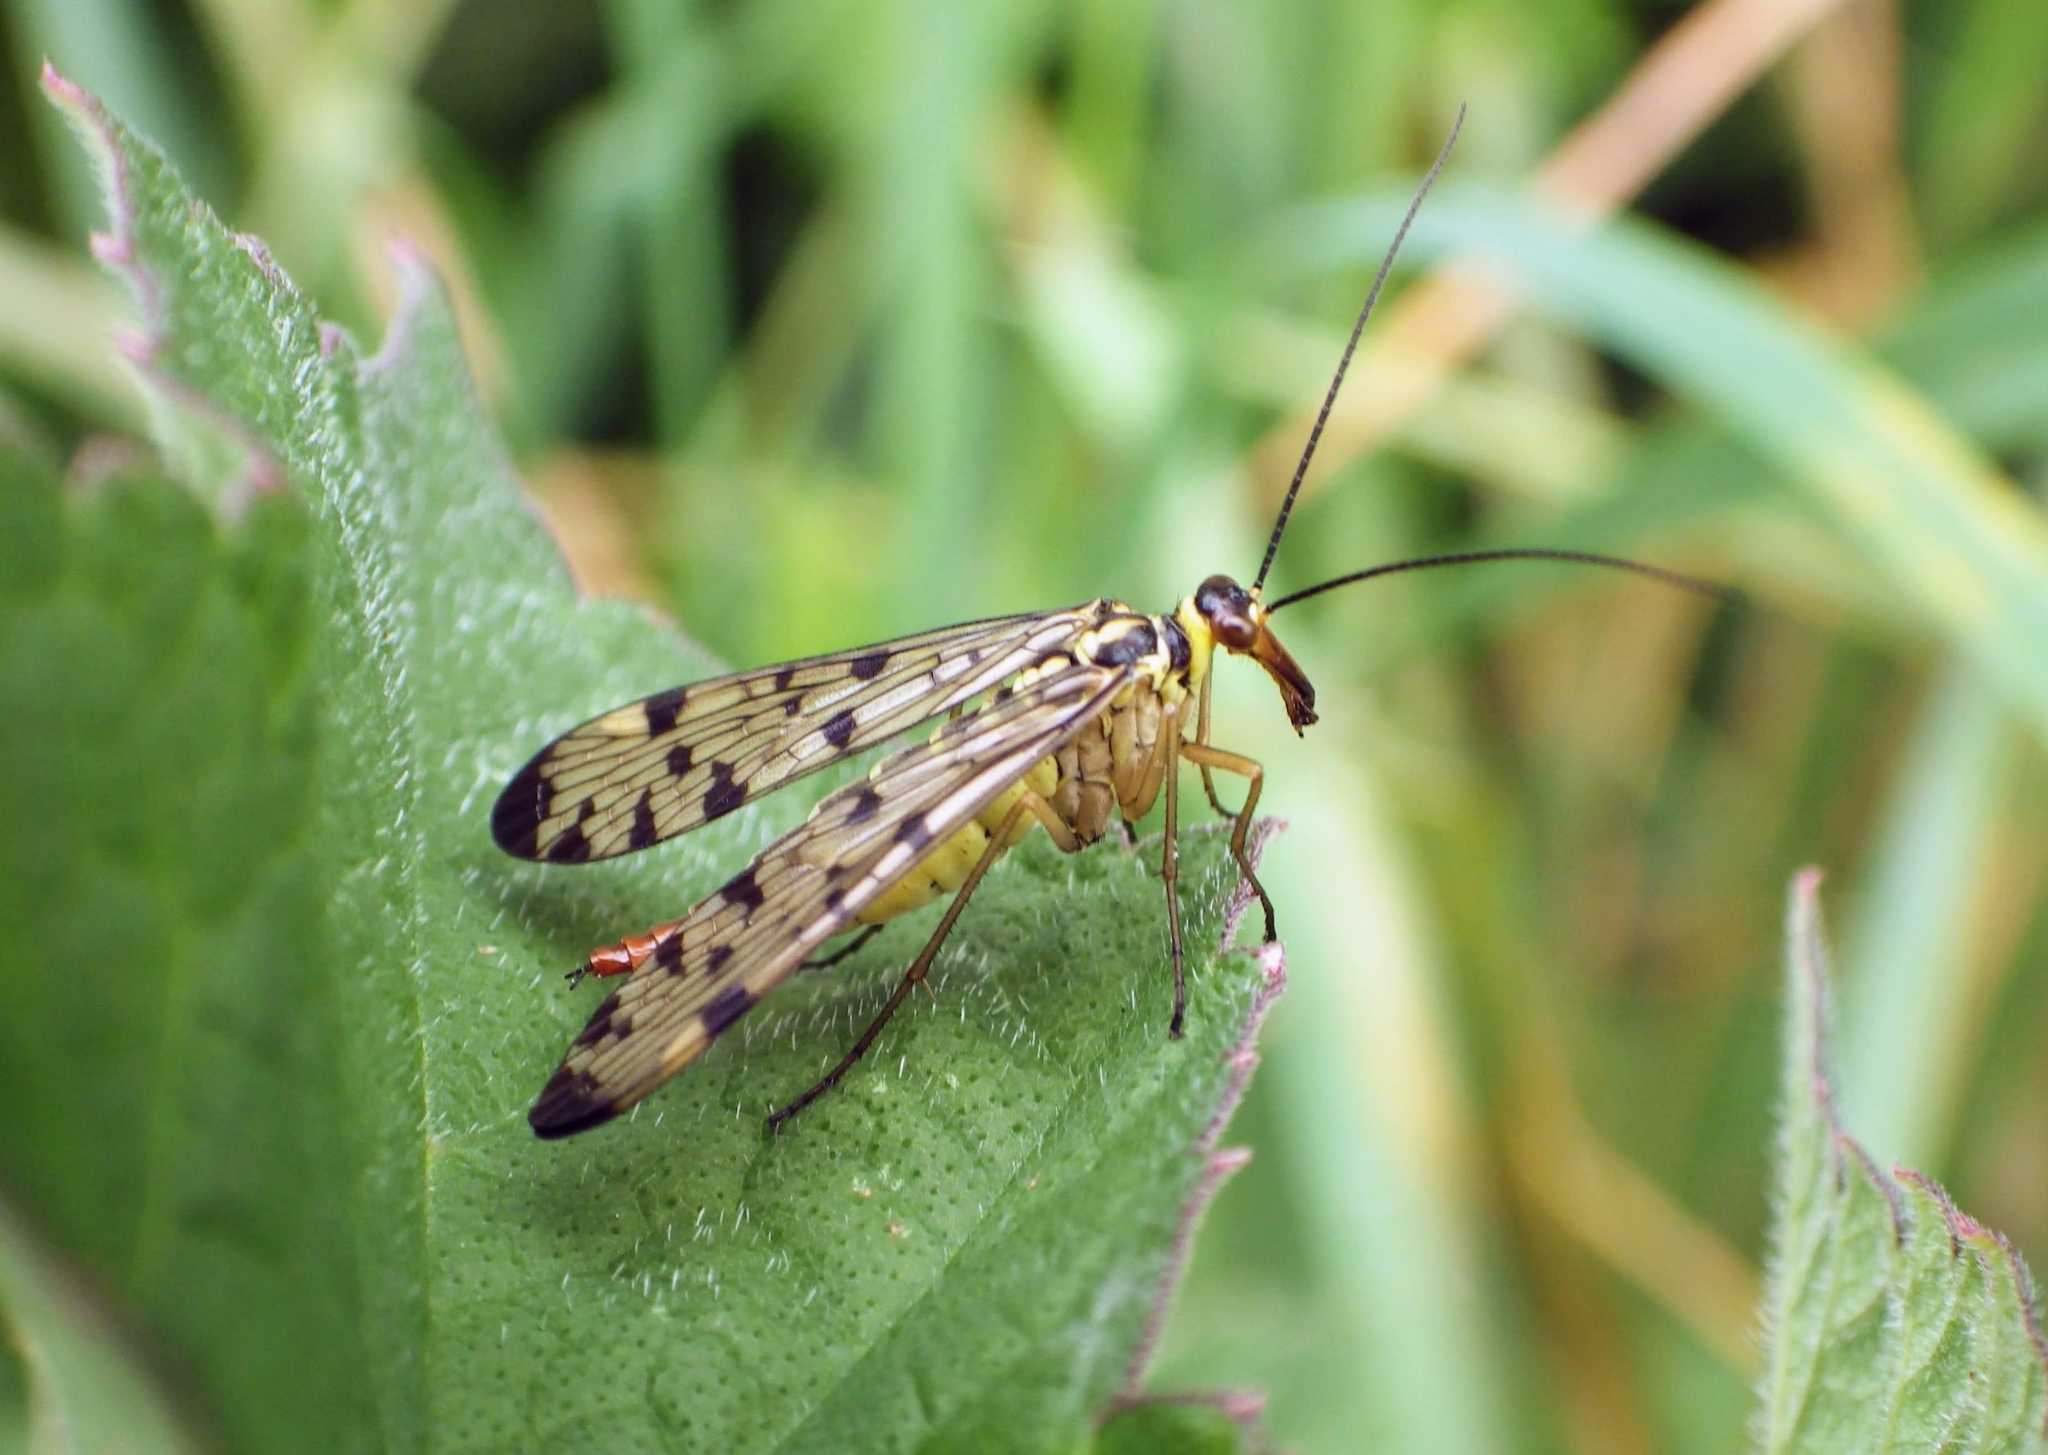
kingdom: Animalia
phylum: Arthropoda
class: Insecta
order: Mecoptera
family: Panorpidae
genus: Panorpa
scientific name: Panorpa germanica
